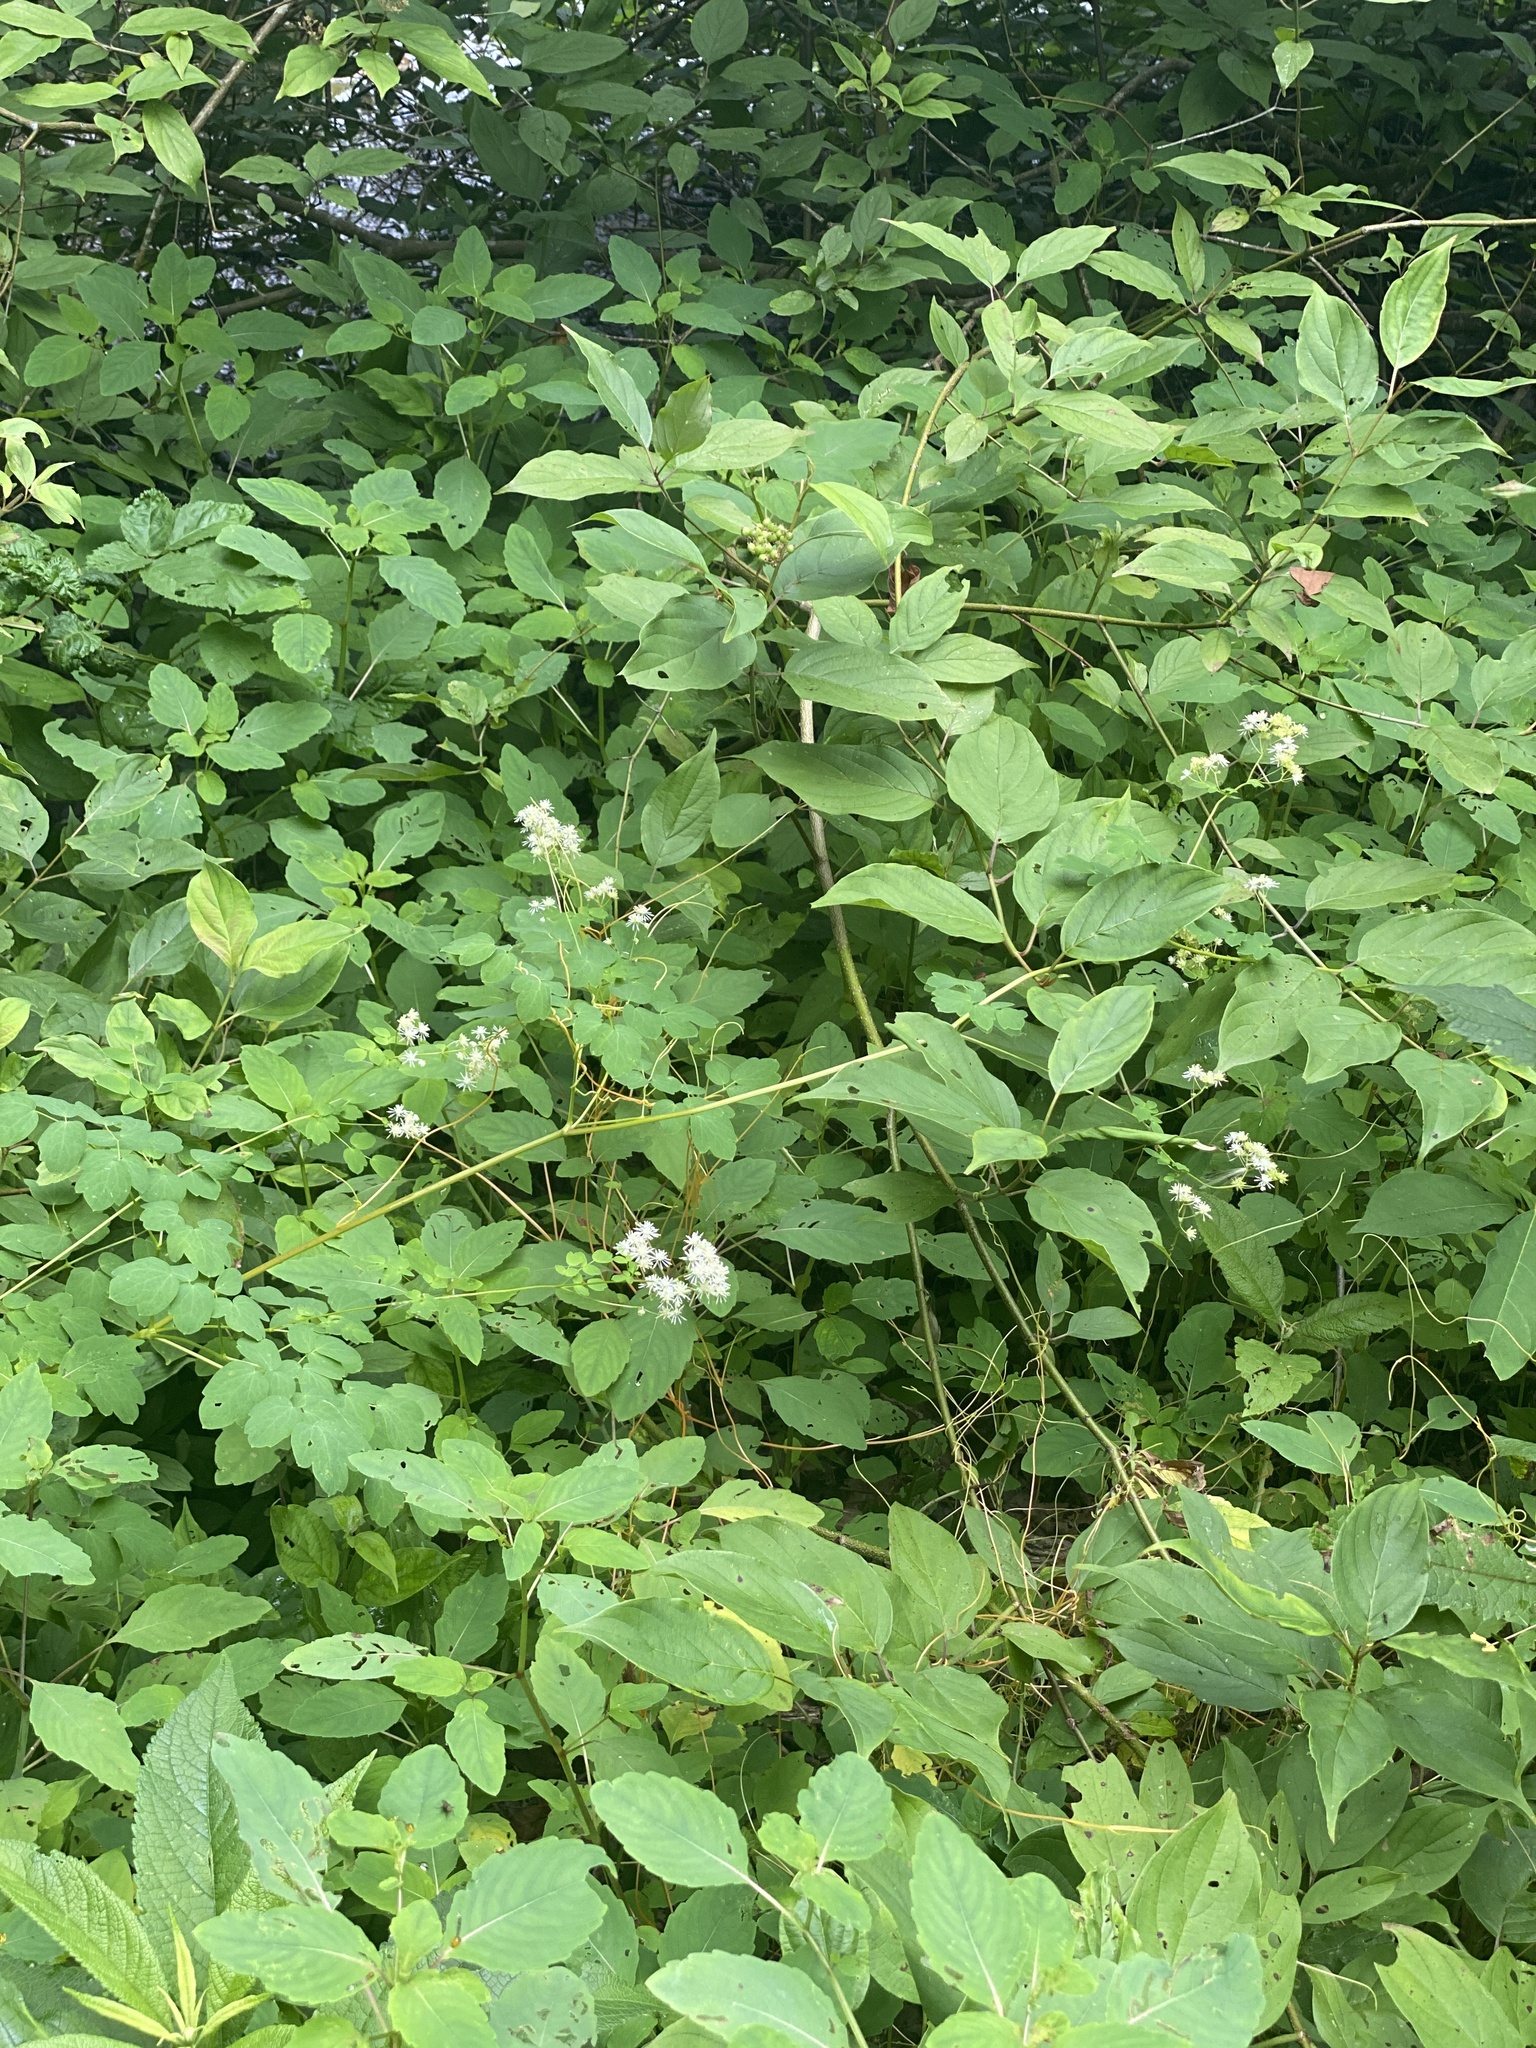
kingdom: Plantae
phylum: Tracheophyta
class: Magnoliopsida
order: Ranunculales
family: Ranunculaceae
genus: Thalictrum
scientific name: Thalictrum pubescens
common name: King-of-the-meadow
